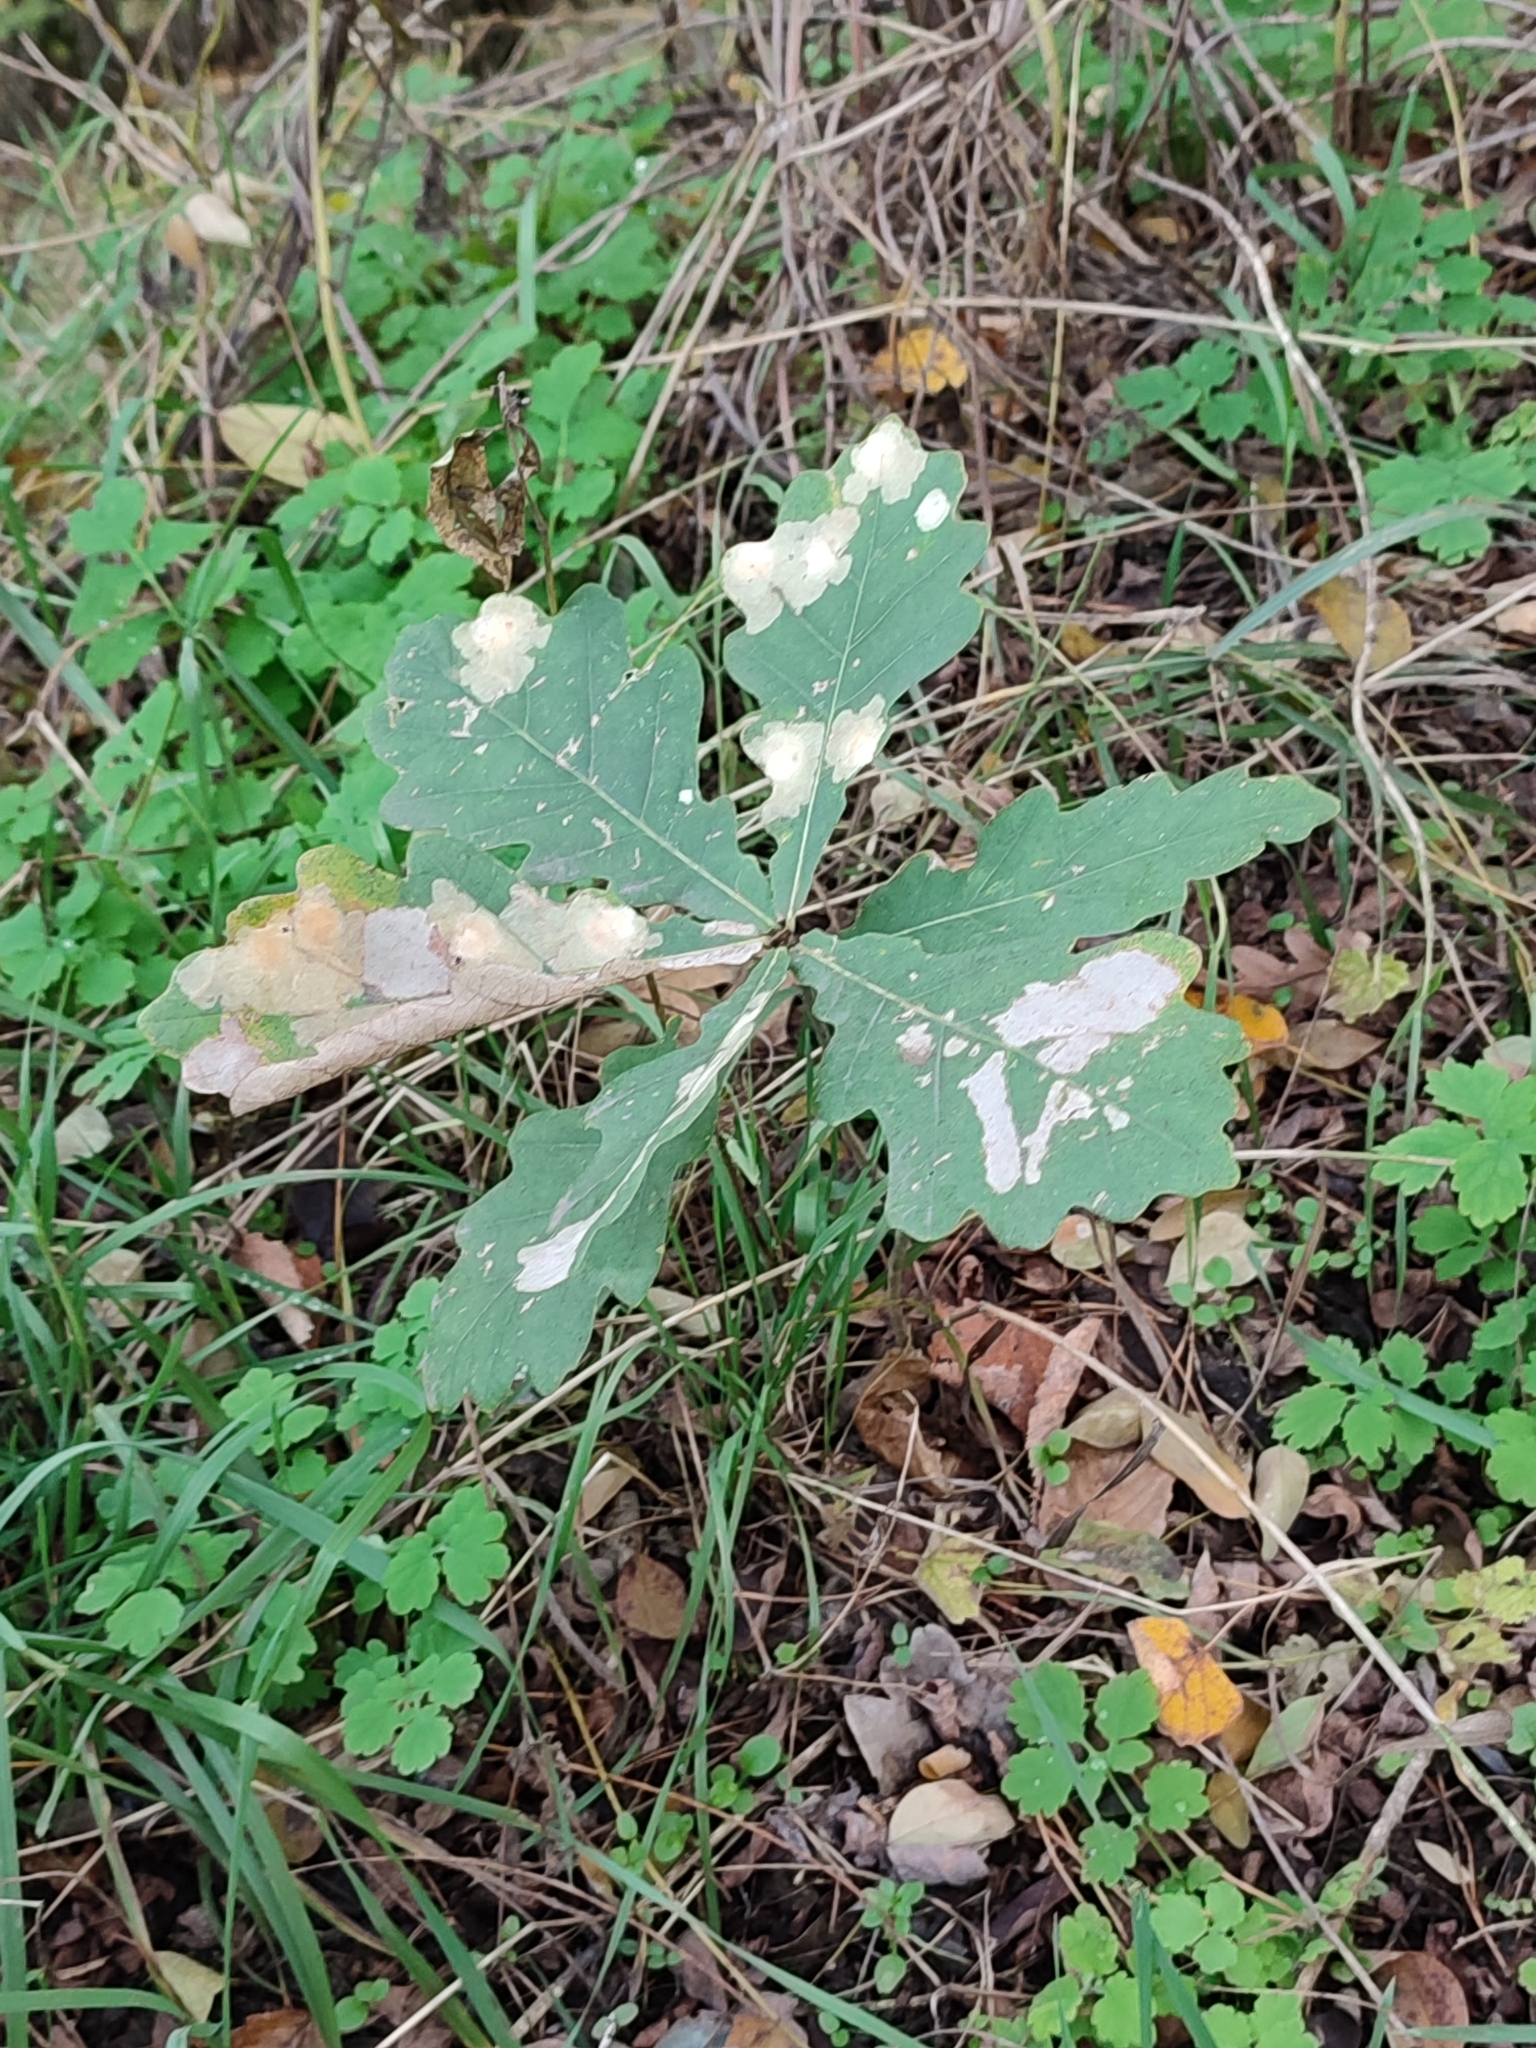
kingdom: Plantae
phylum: Tracheophyta
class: Magnoliopsida
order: Fagales
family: Fagaceae
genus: Quercus
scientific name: Quercus robur
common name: Pedunculate oak
